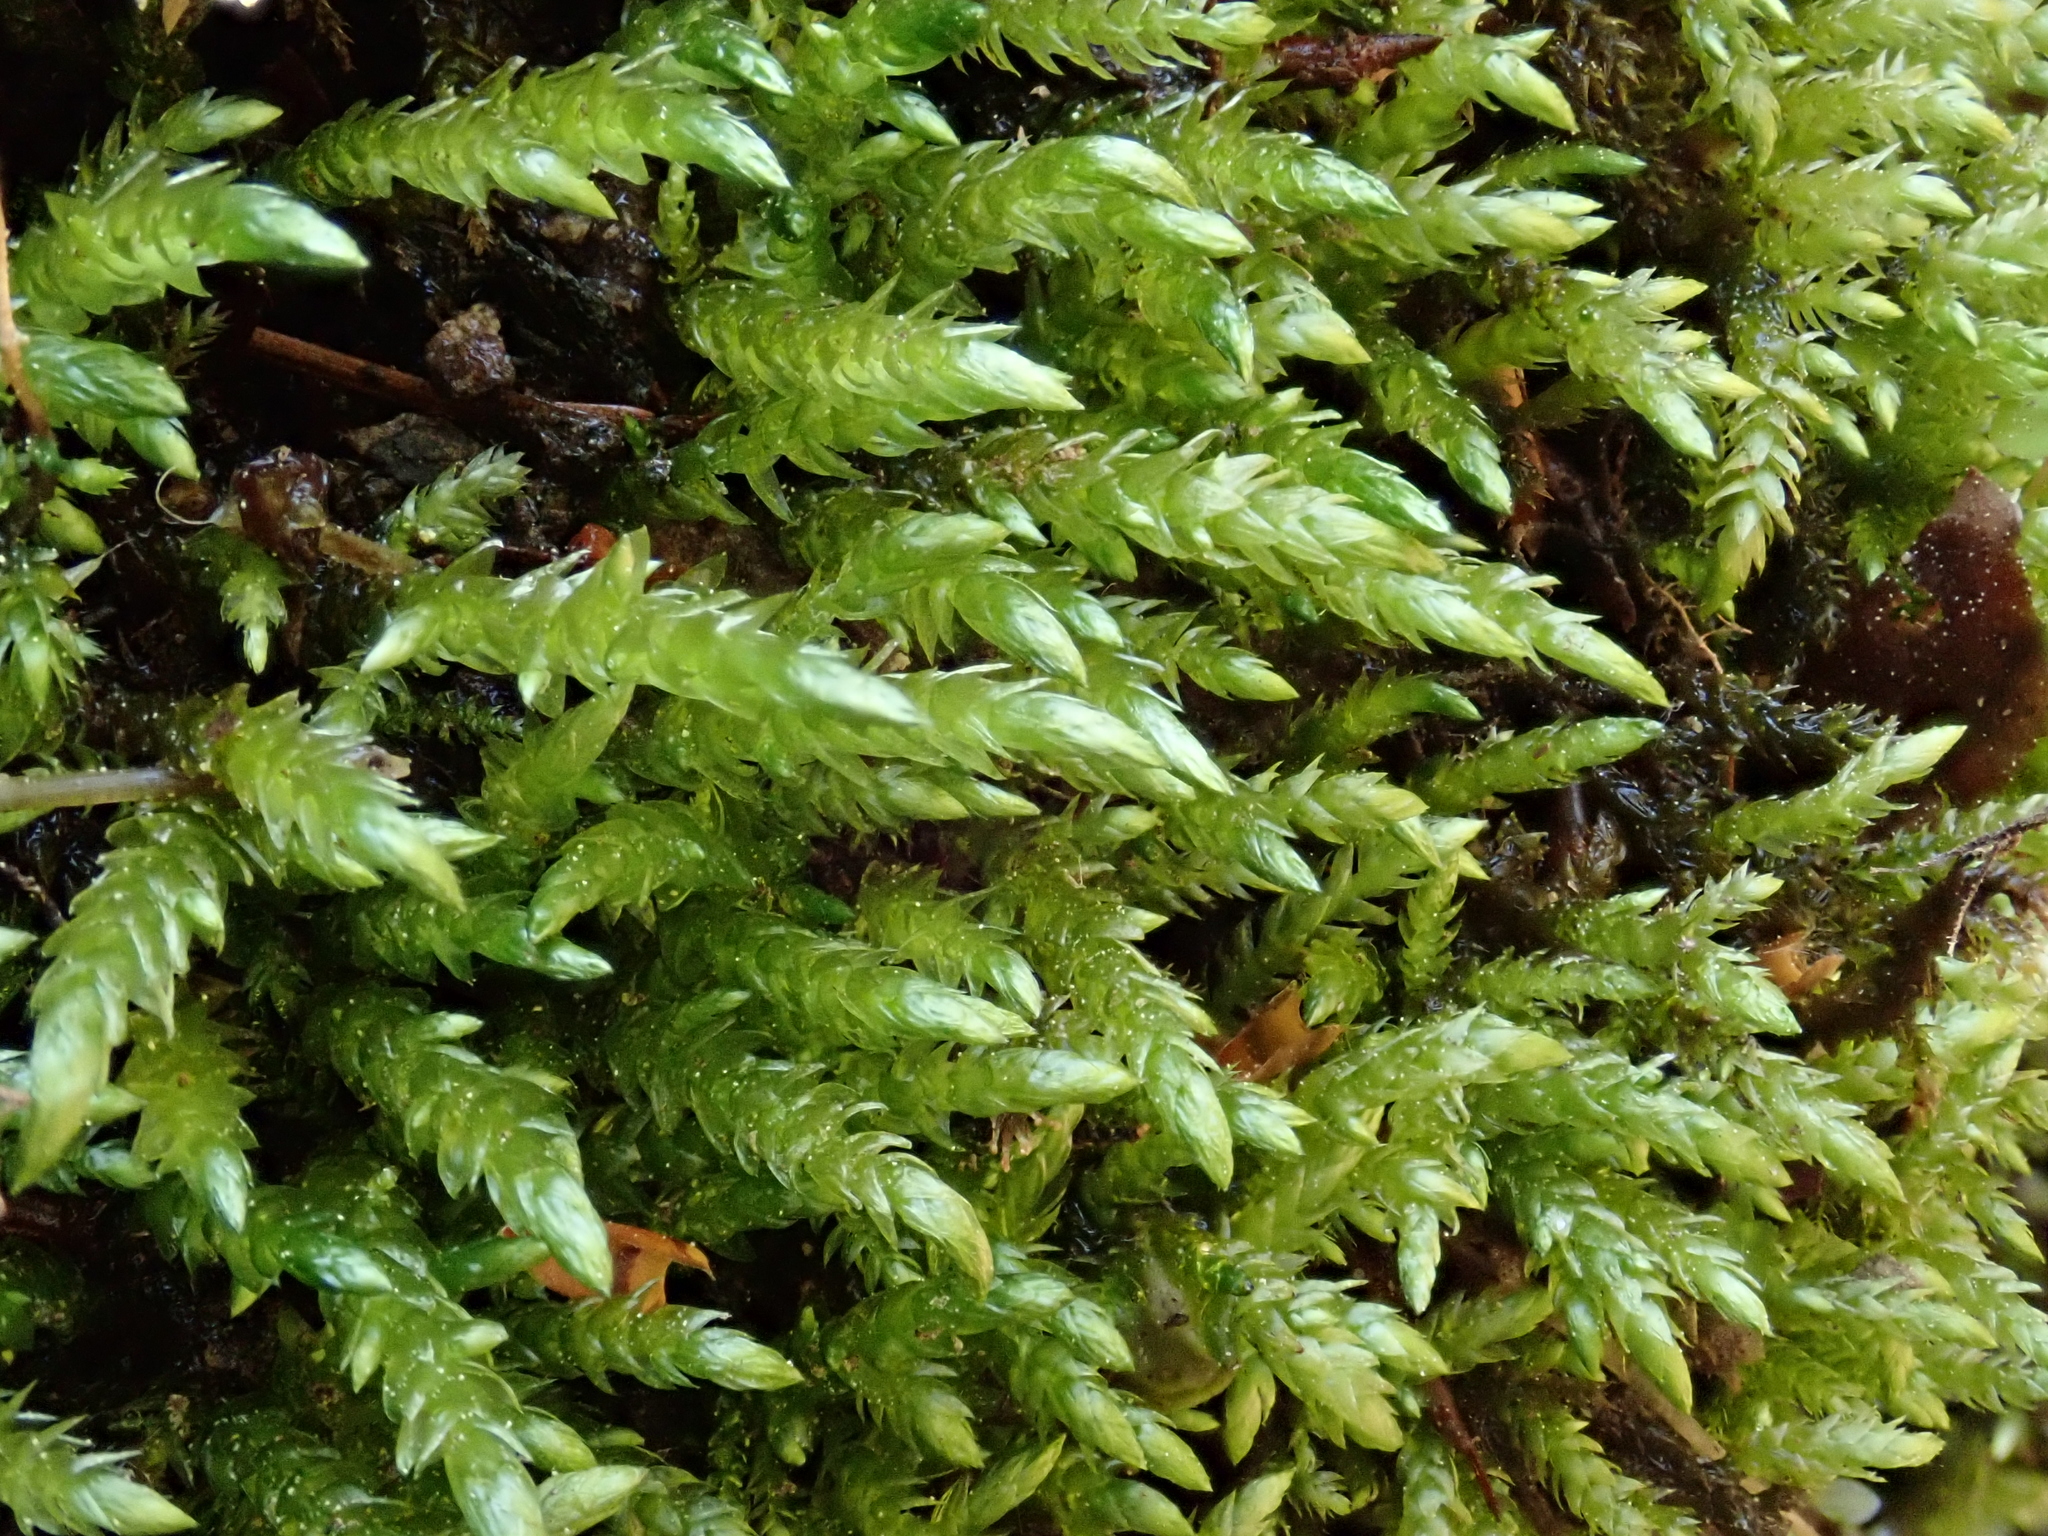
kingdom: Plantae
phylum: Bryophyta
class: Bryopsida
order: Hypnales
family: Brachytheciaceae
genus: Brachythecium
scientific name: Brachythecium rivulare
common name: River ragged moss
